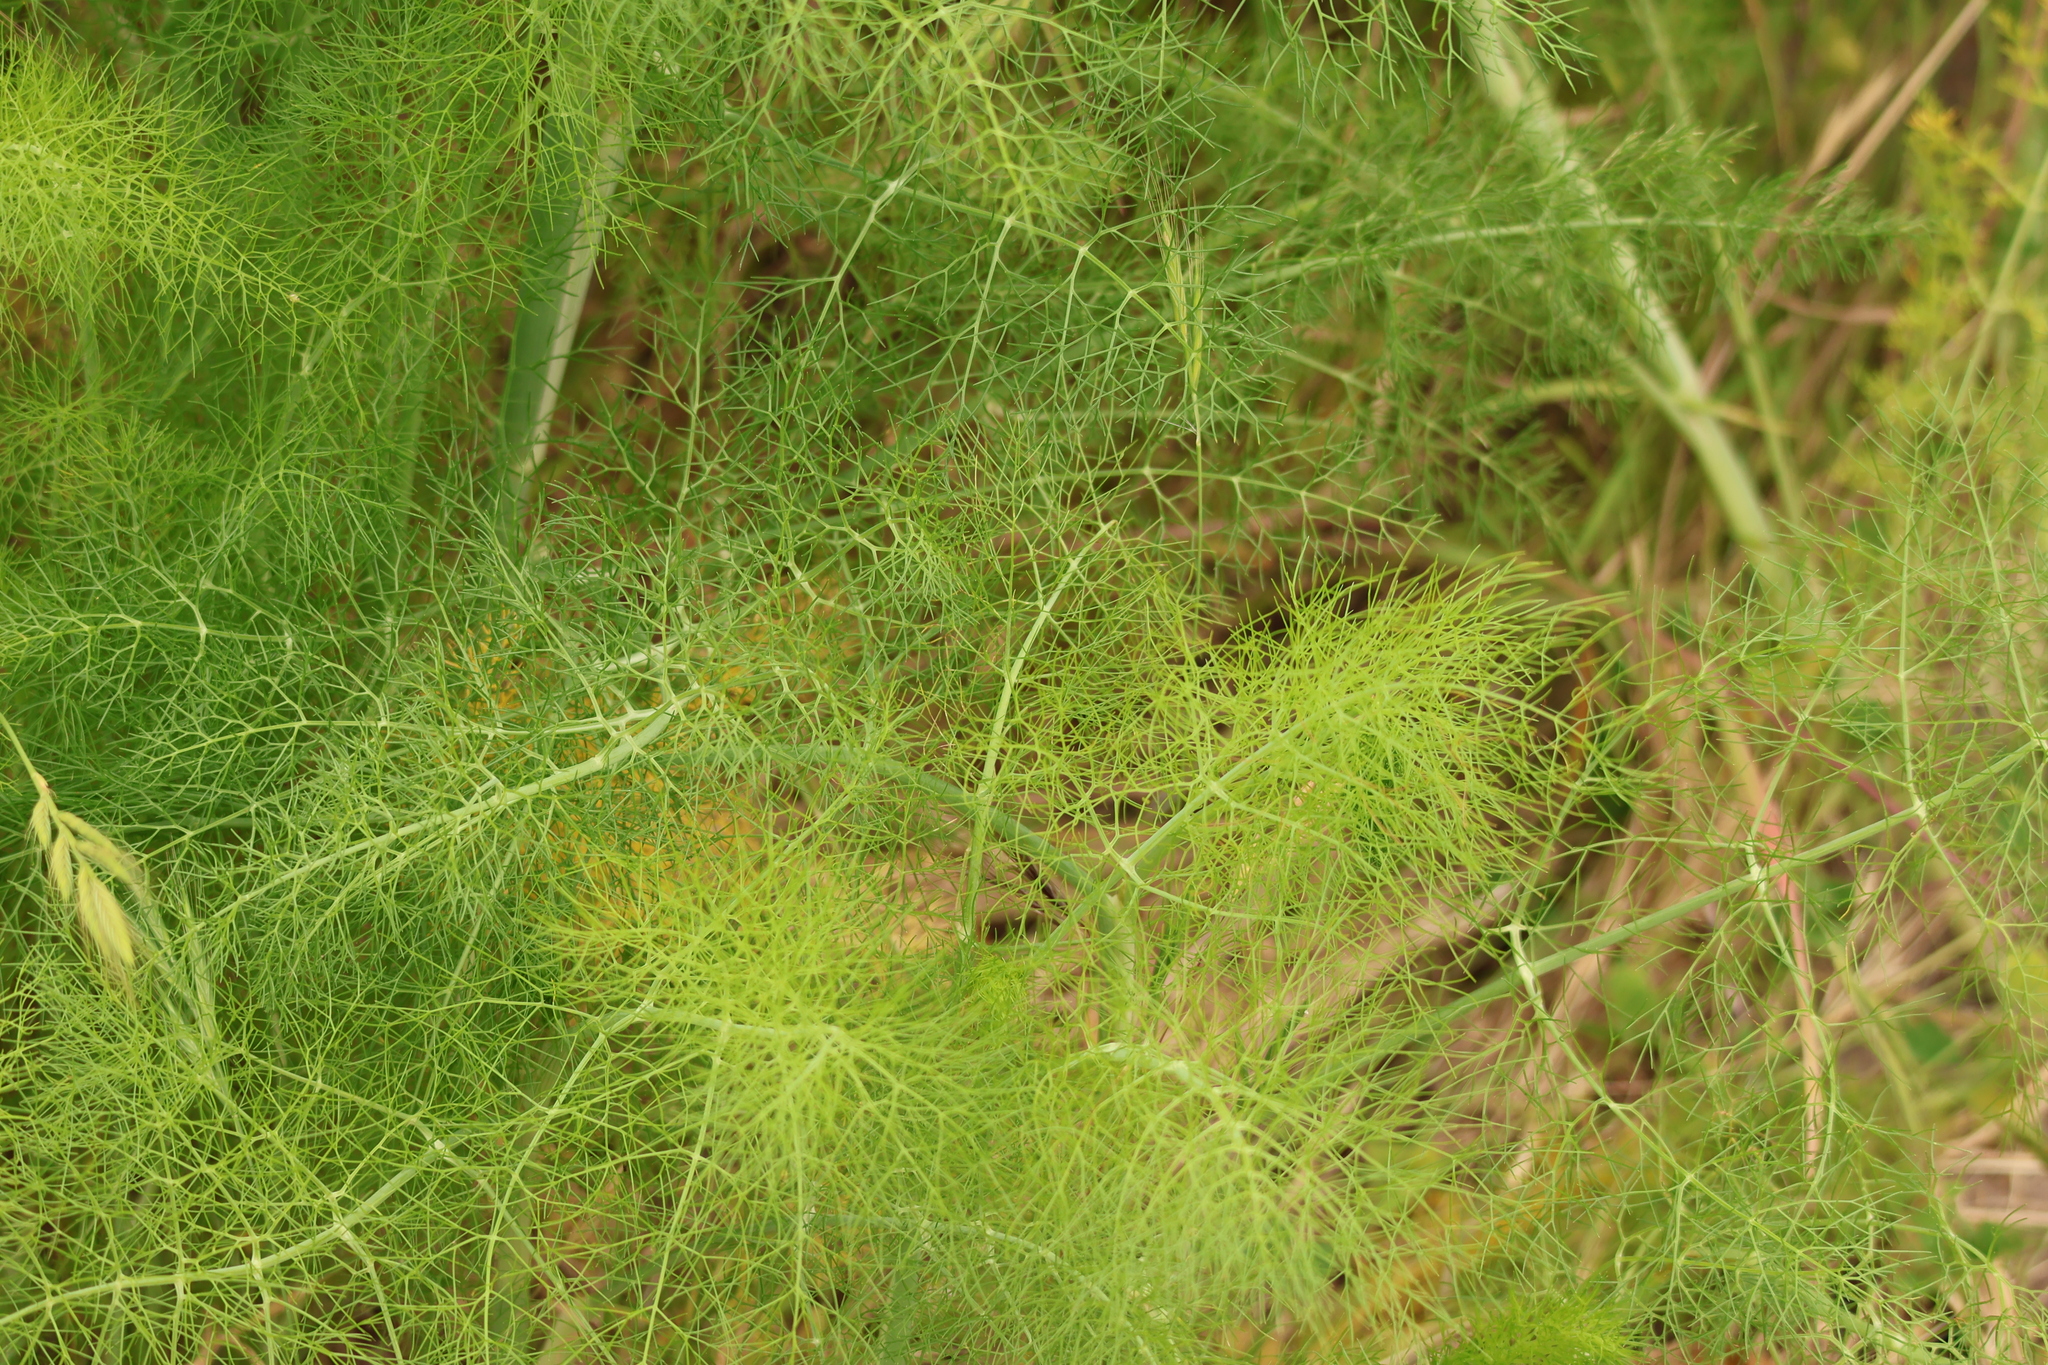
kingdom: Plantae
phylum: Tracheophyta
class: Magnoliopsida
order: Apiales
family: Apiaceae
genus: Foeniculum
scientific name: Foeniculum vulgare
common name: Fennel
